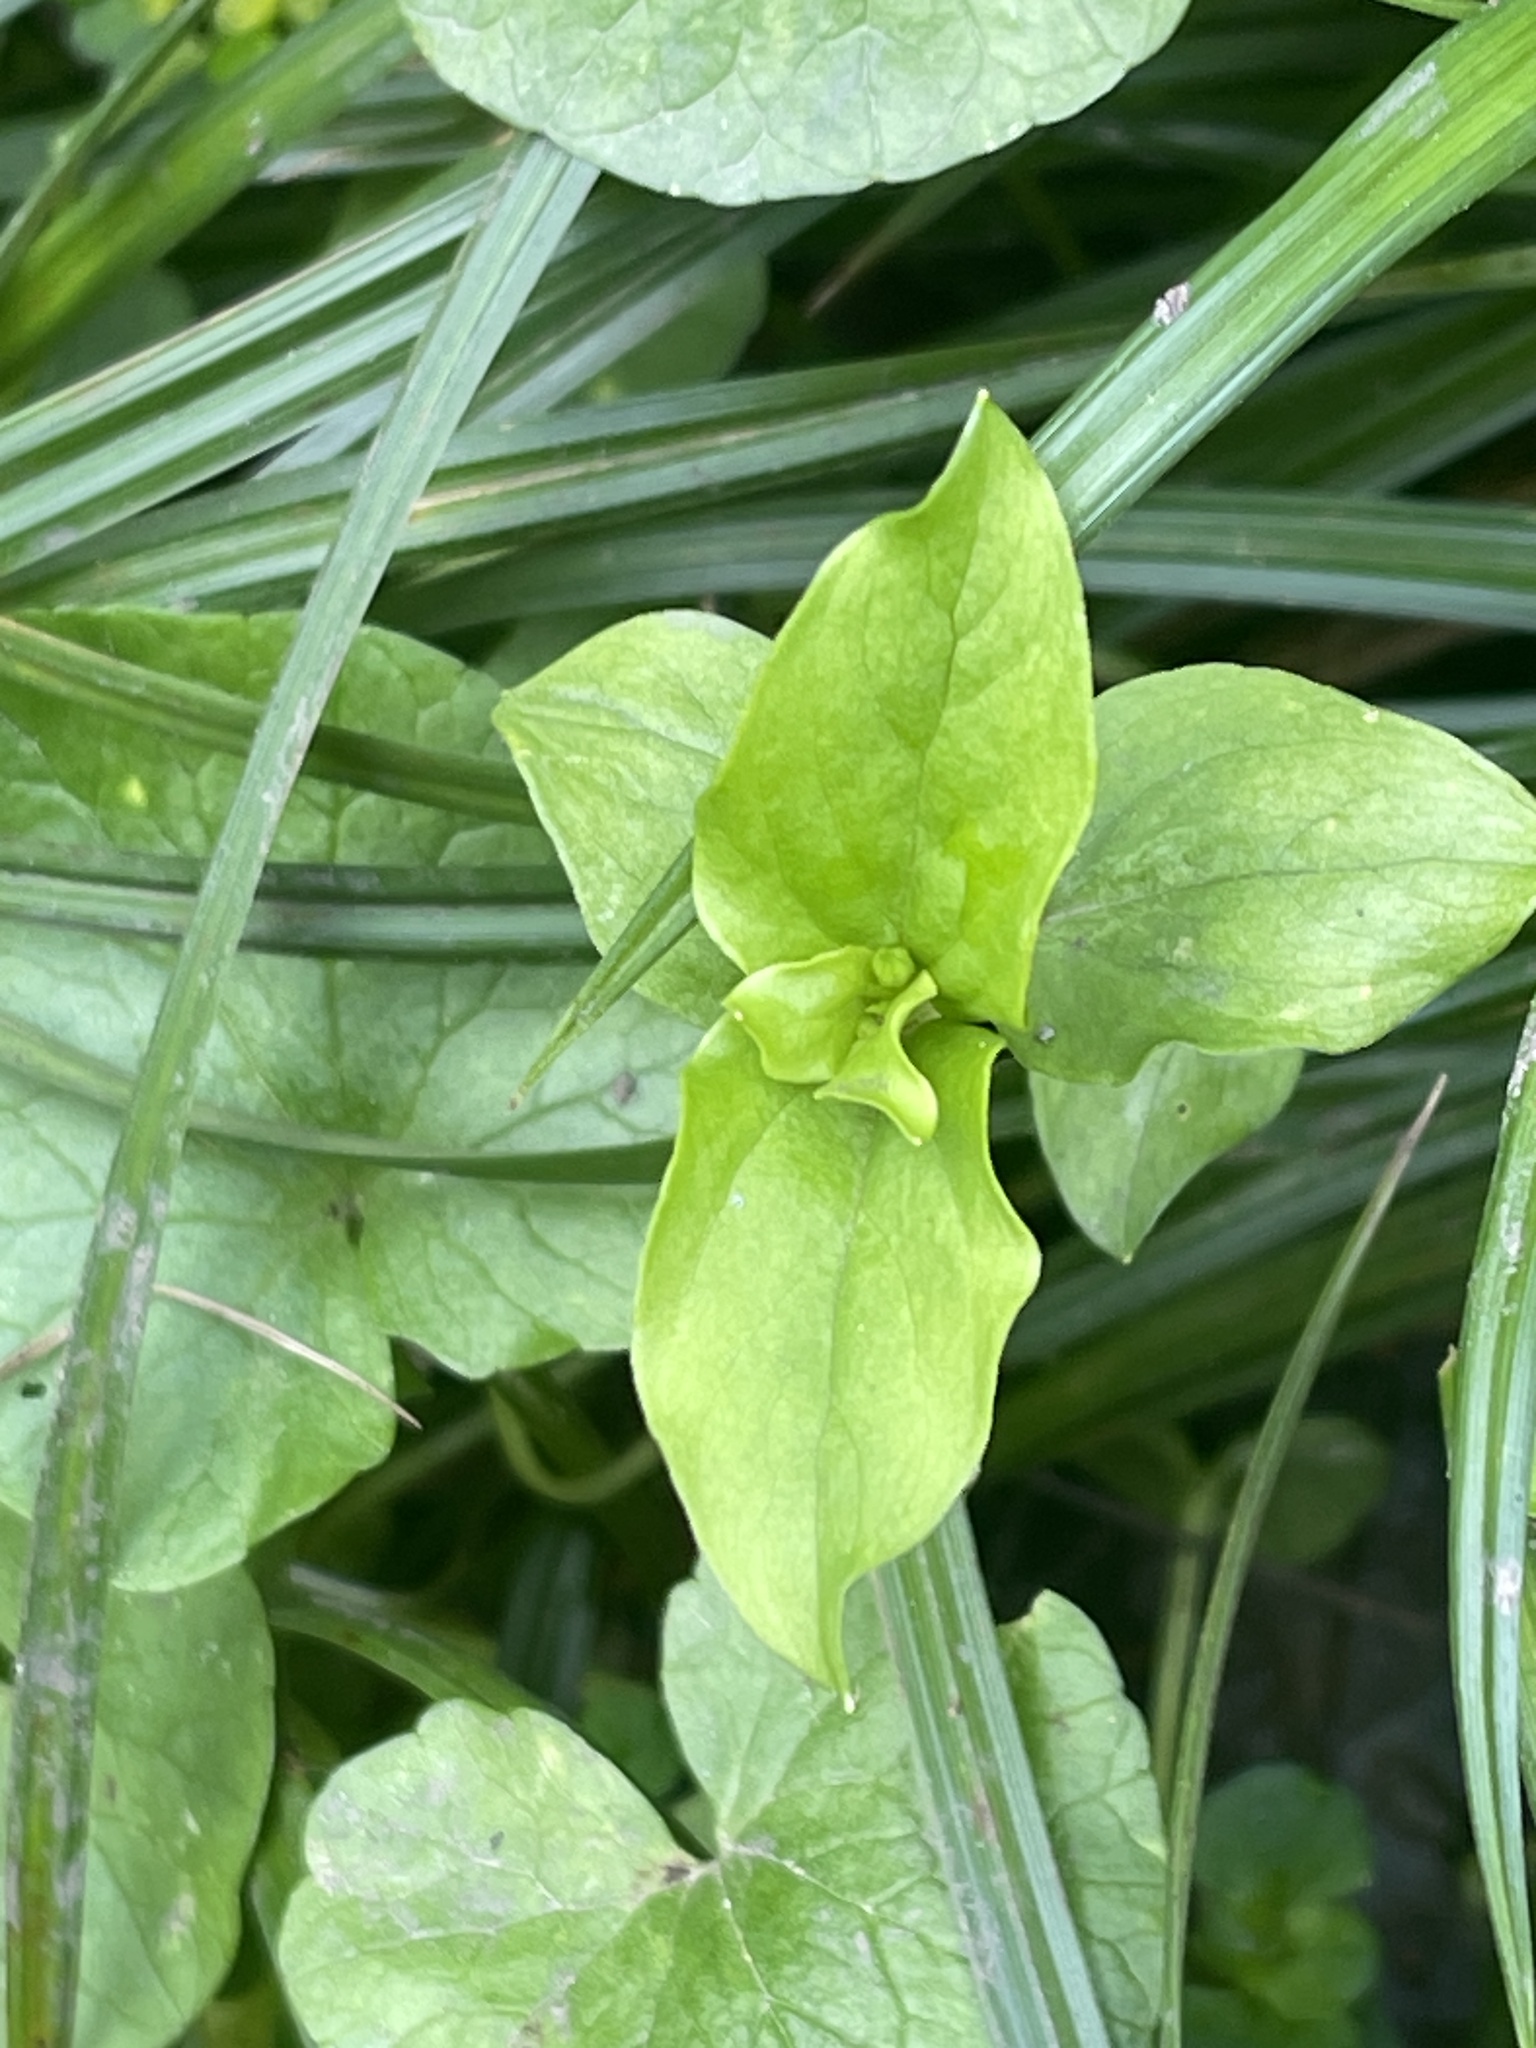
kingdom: Plantae
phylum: Tracheophyta
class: Magnoliopsida
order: Ericales
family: Primulaceae
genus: Lysimachia
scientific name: Lysimachia nemorum
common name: Yellow pimpernel
